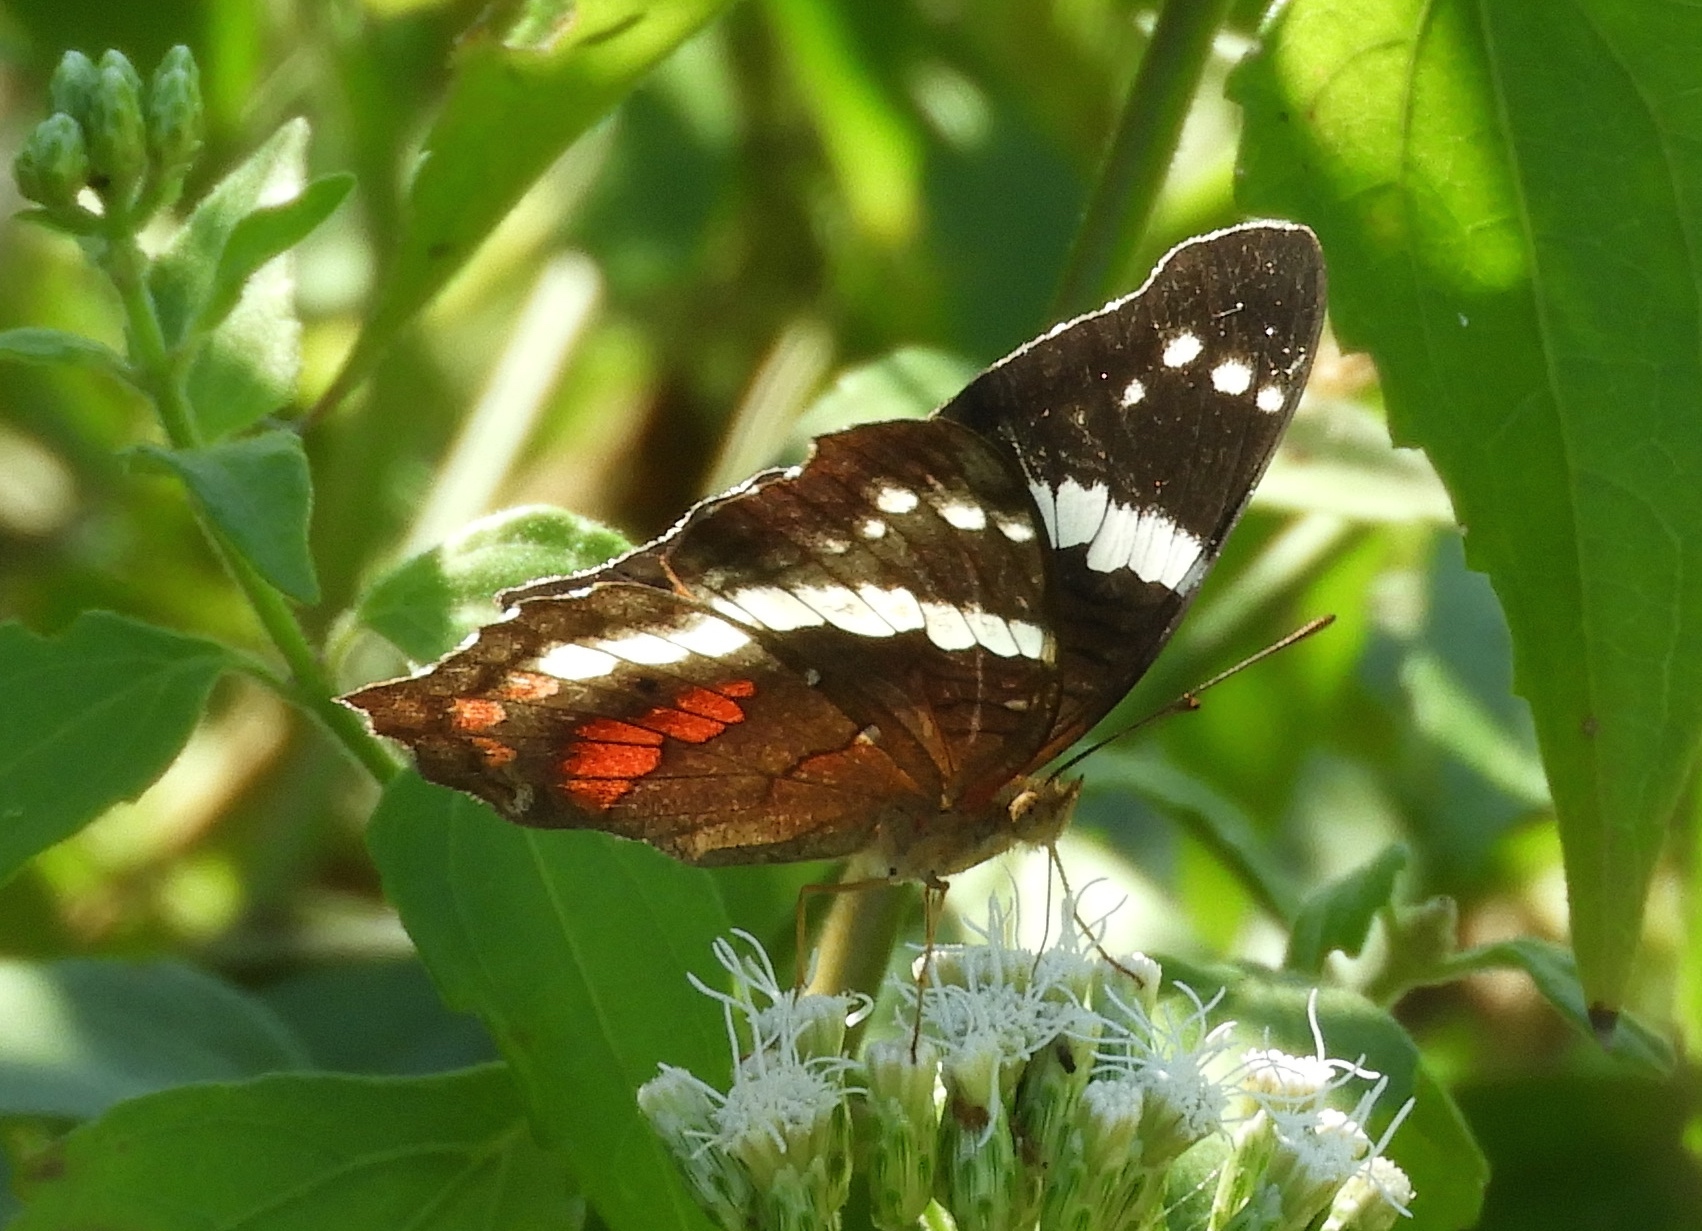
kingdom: Animalia
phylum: Arthropoda
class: Insecta
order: Lepidoptera
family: Nymphalidae
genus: Anartia
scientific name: Anartia fatima
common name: Banded peacock
